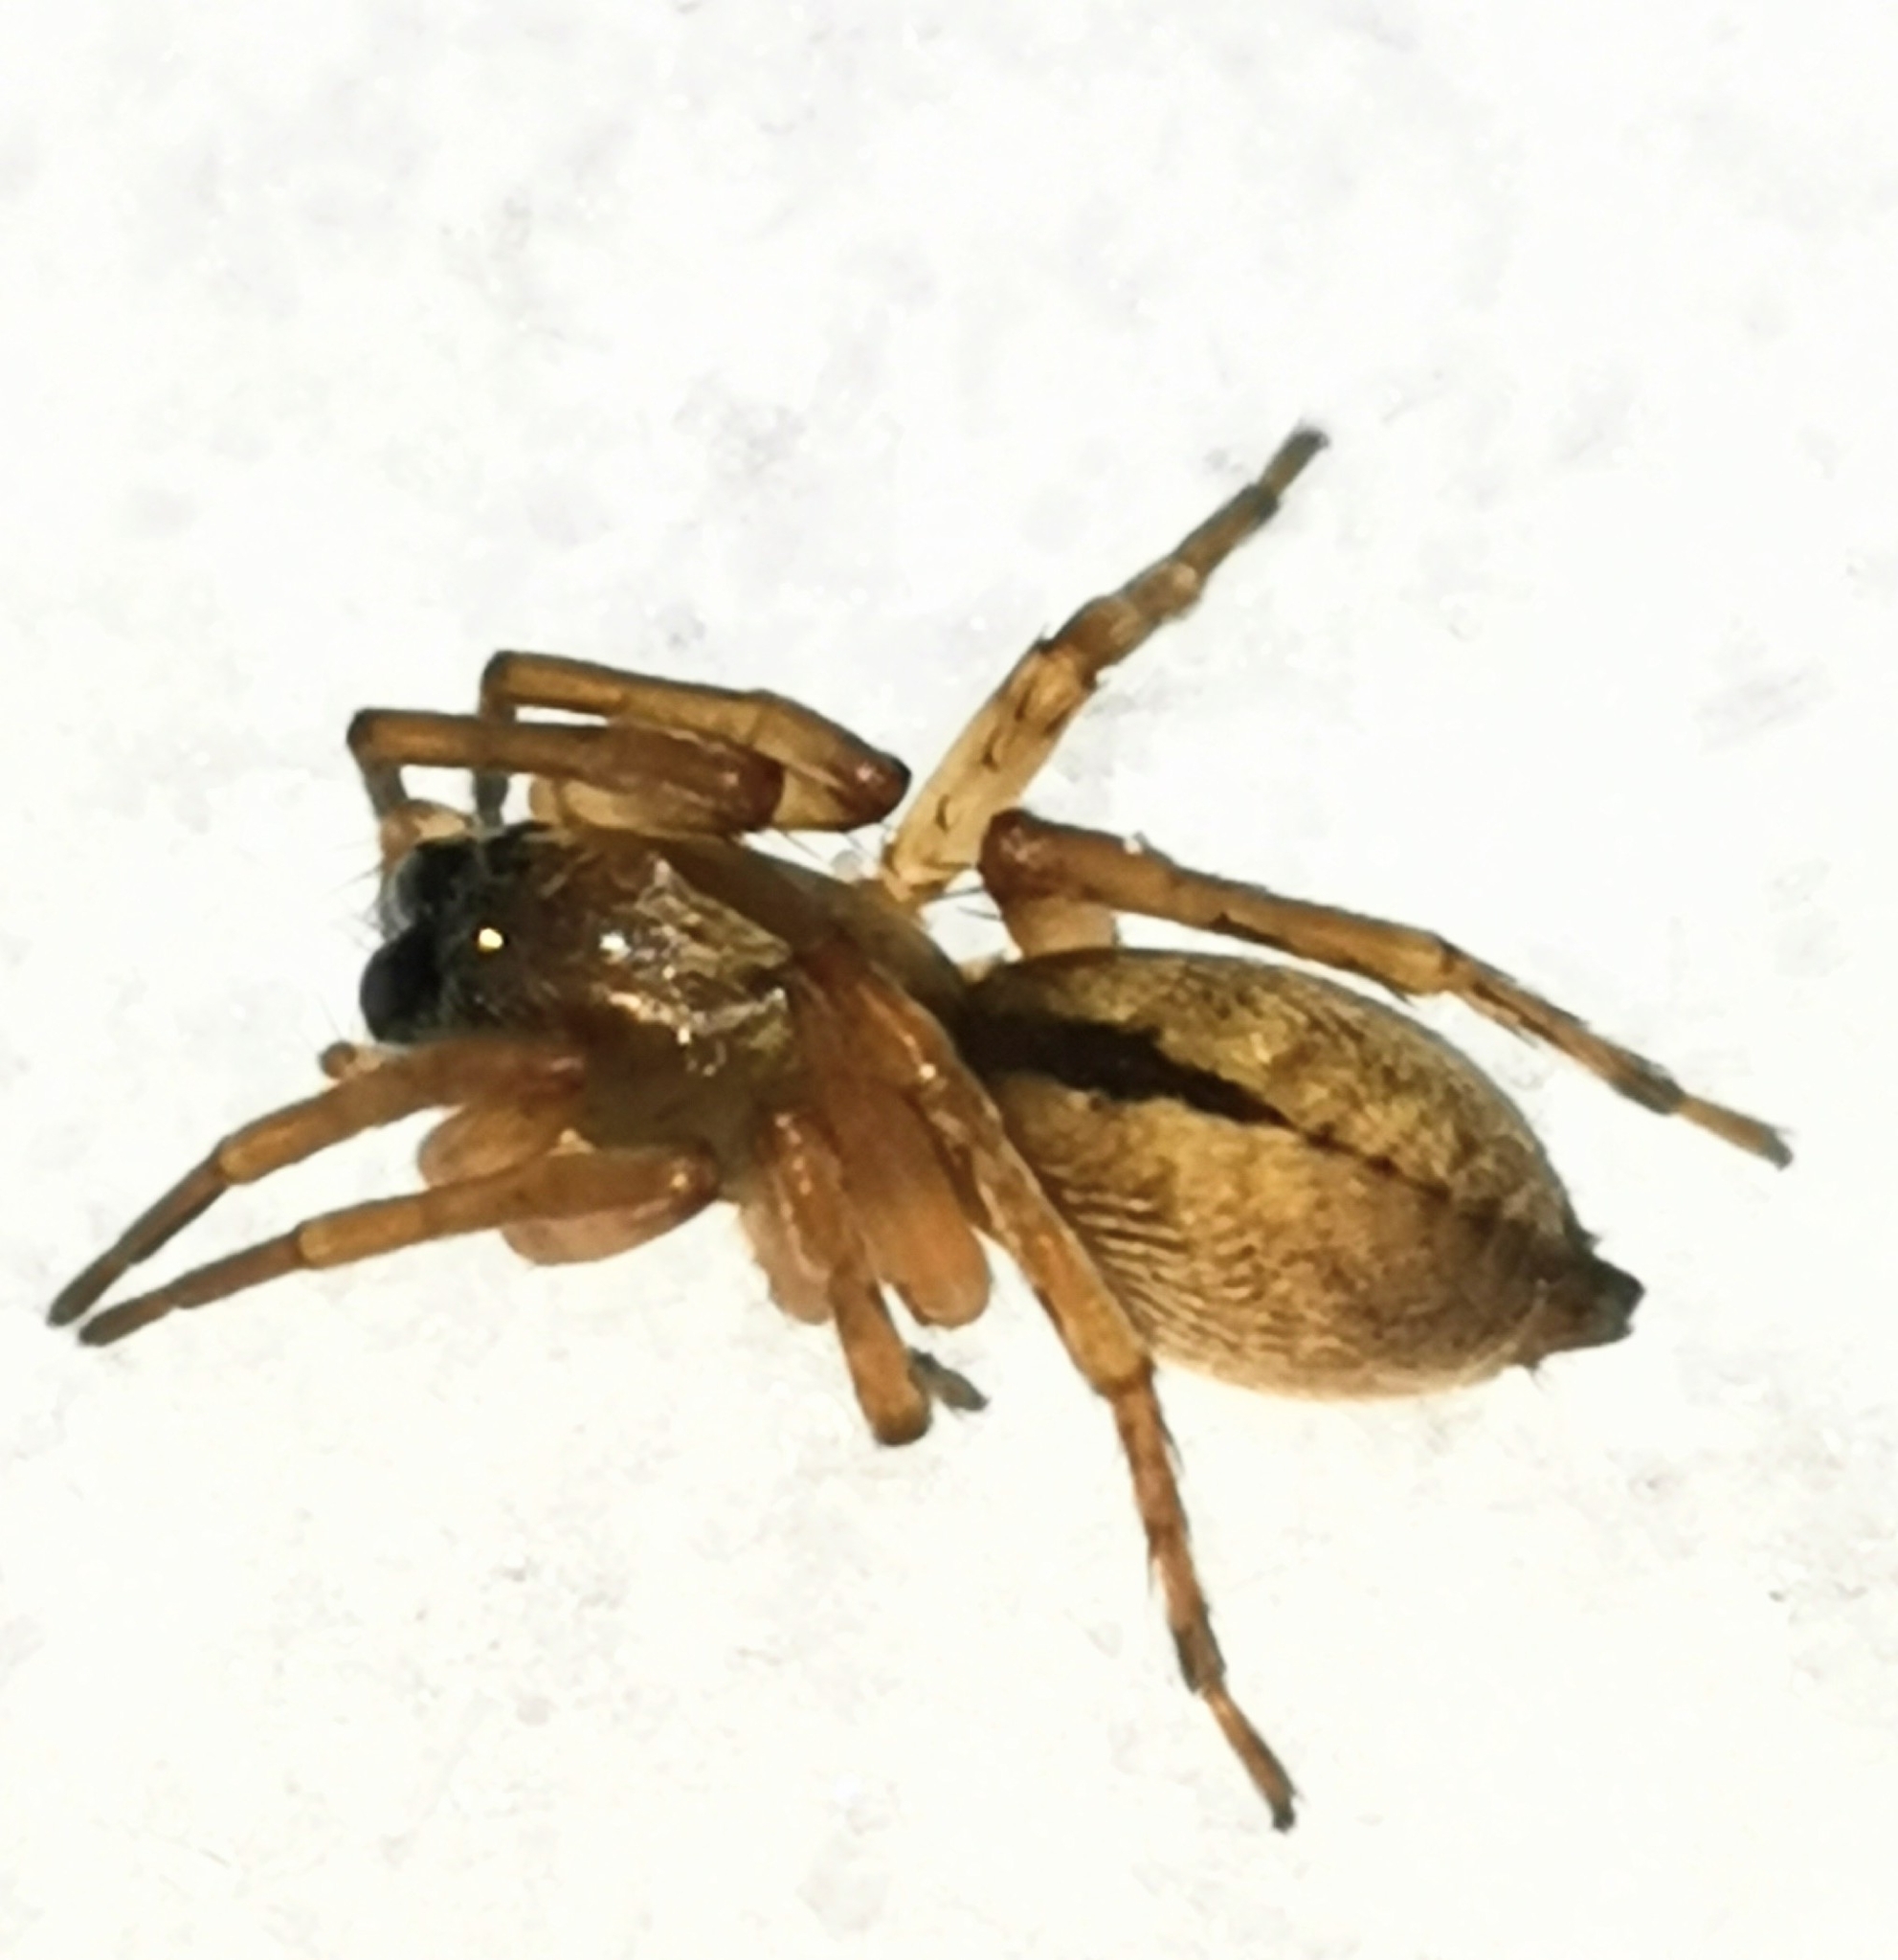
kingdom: Animalia
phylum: Arthropoda
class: Arachnida
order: Araneae
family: Clubionidae
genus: Clubiona
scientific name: Clubiona subsultans
